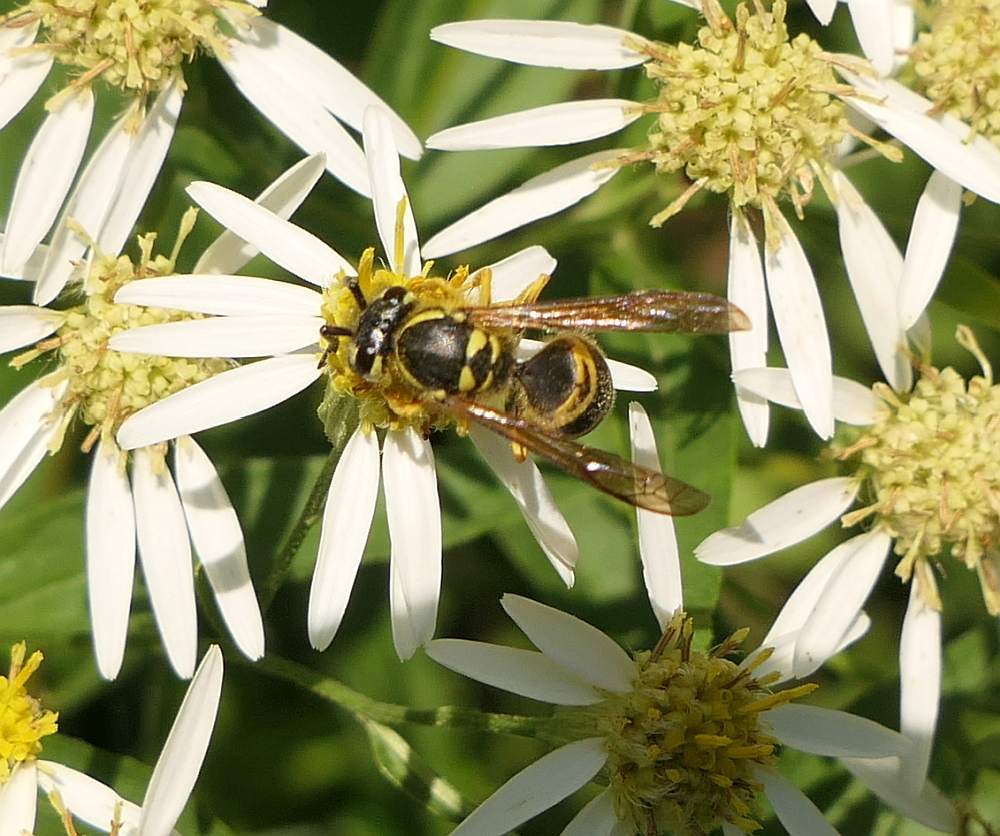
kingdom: Animalia
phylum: Arthropoda
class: Insecta
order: Hymenoptera
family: Vespidae
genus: Vespula
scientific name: Vespula maculifrons
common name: Eastern yellowjacket
